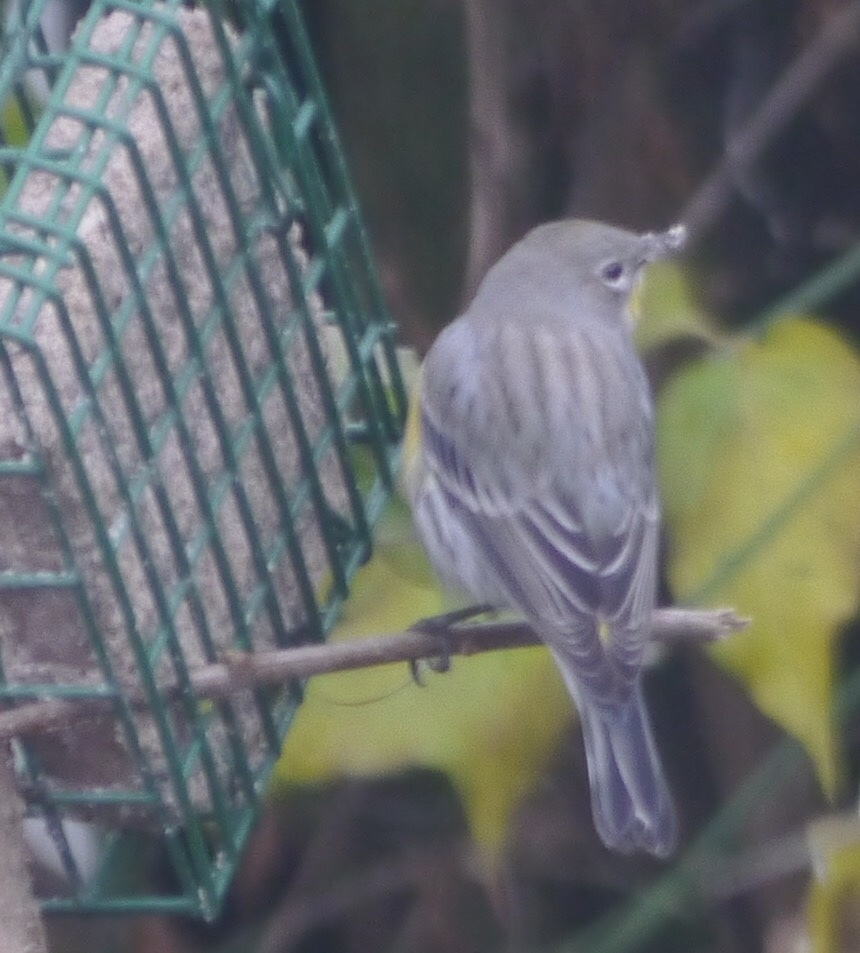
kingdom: Animalia
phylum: Chordata
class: Aves
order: Passeriformes
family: Parulidae
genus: Setophaga
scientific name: Setophaga auduboni
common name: Audubon's warbler
